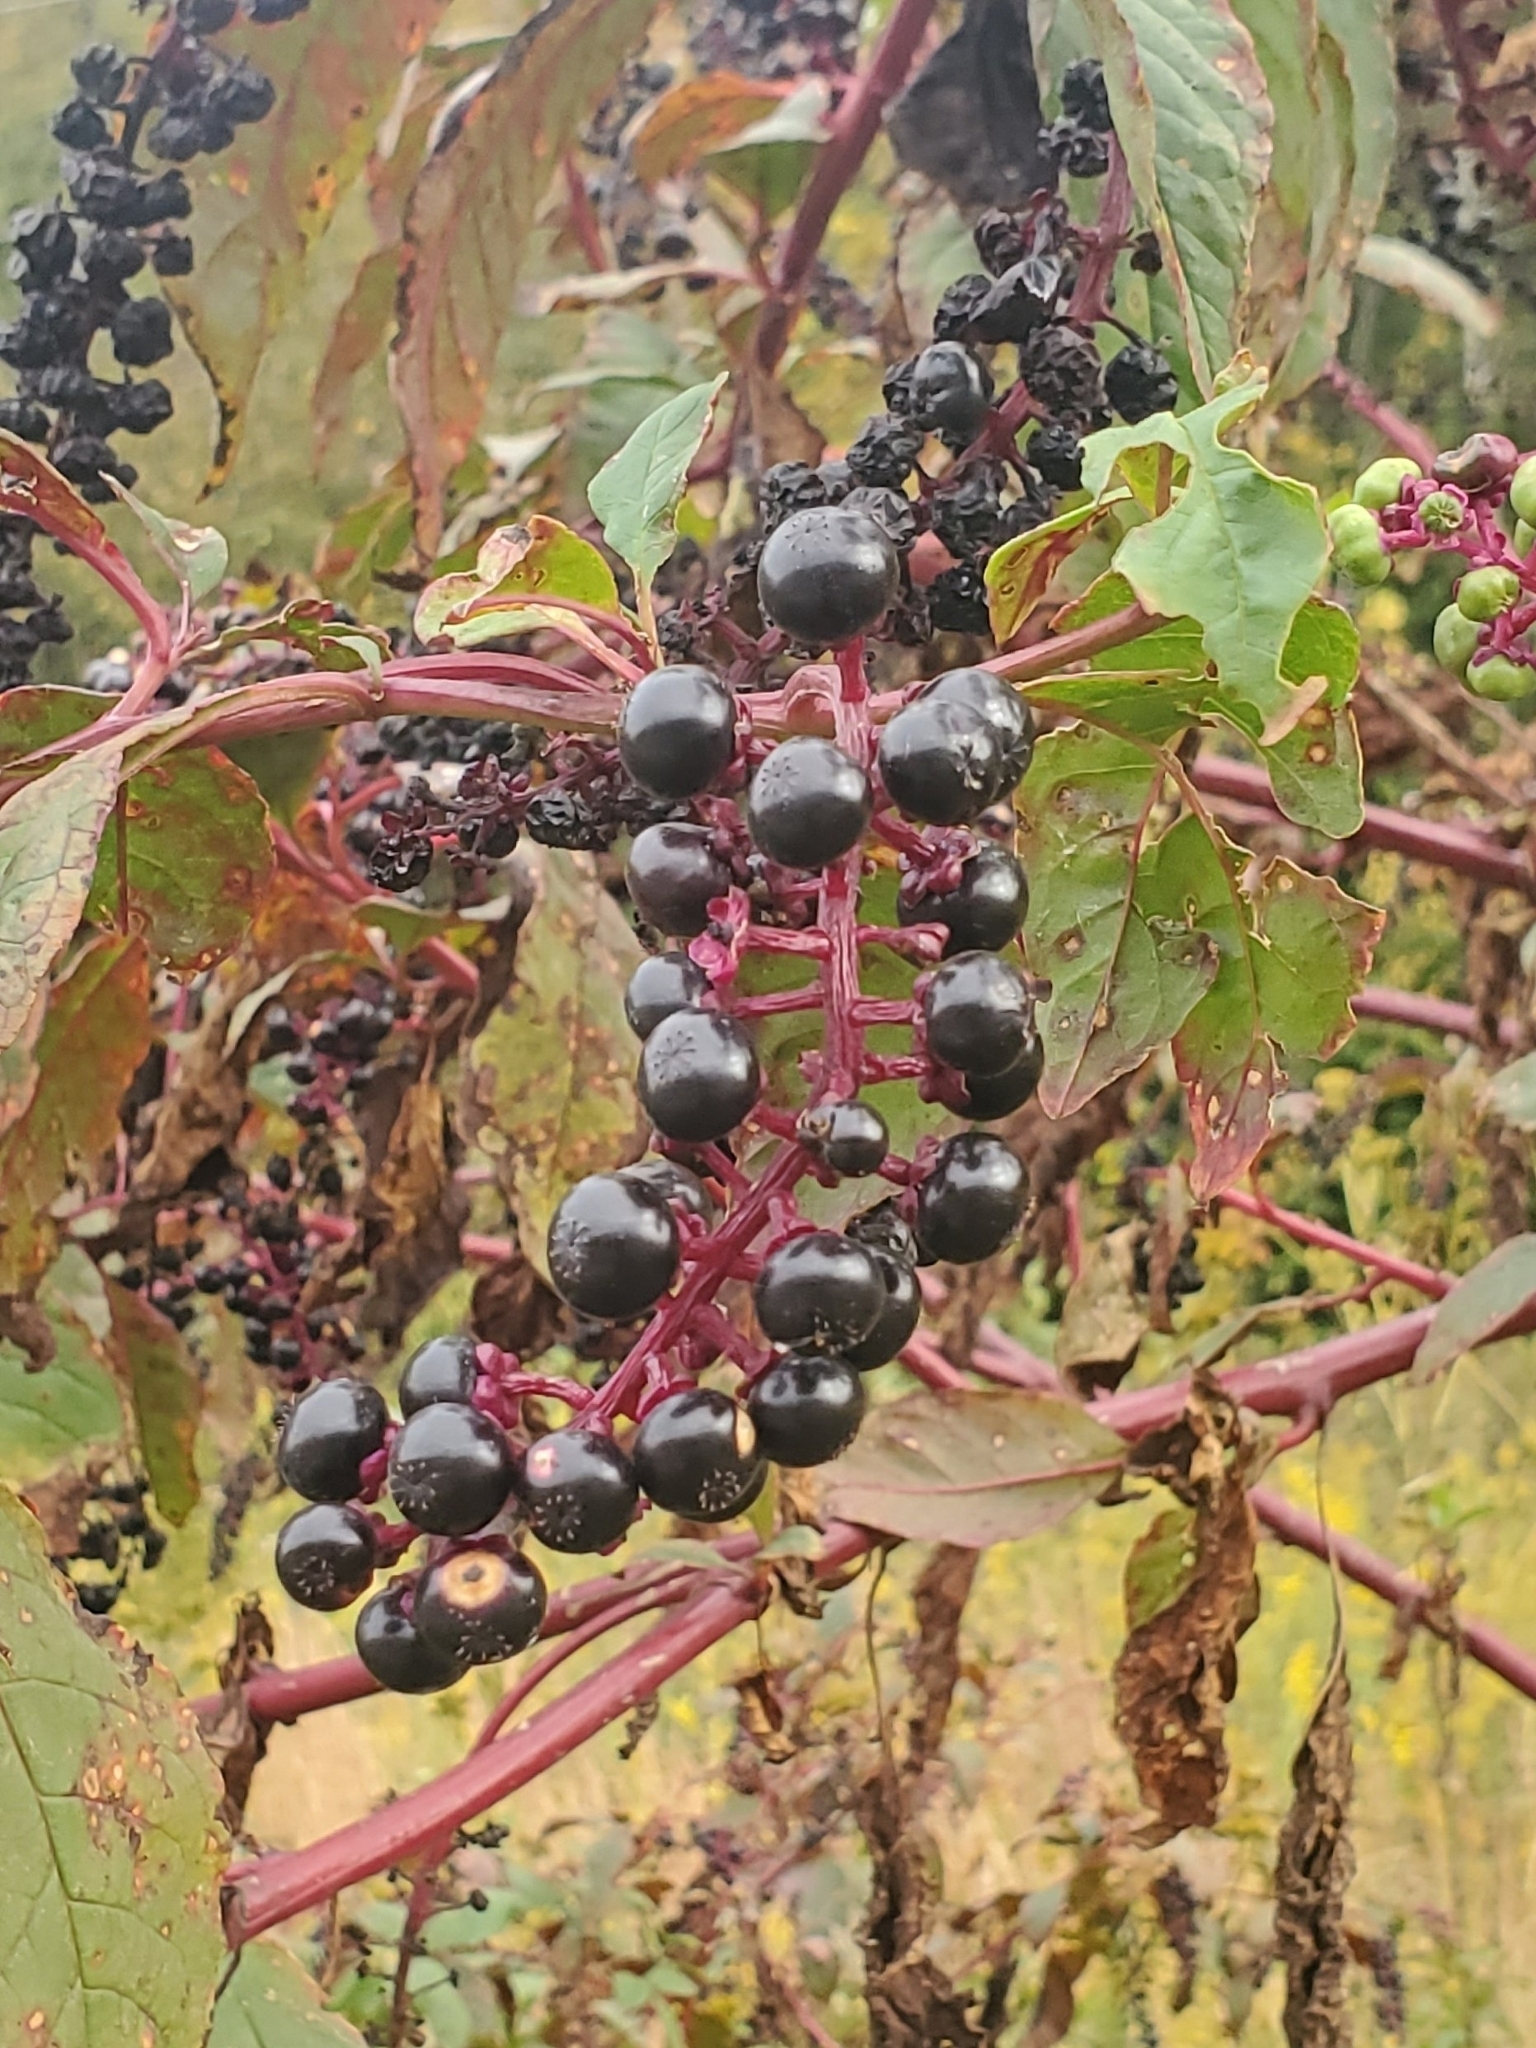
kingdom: Plantae
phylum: Tracheophyta
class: Magnoliopsida
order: Caryophyllales
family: Phytolaccaceae
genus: Phytolacca
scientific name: Phytolacca americana
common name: American pokeweed
